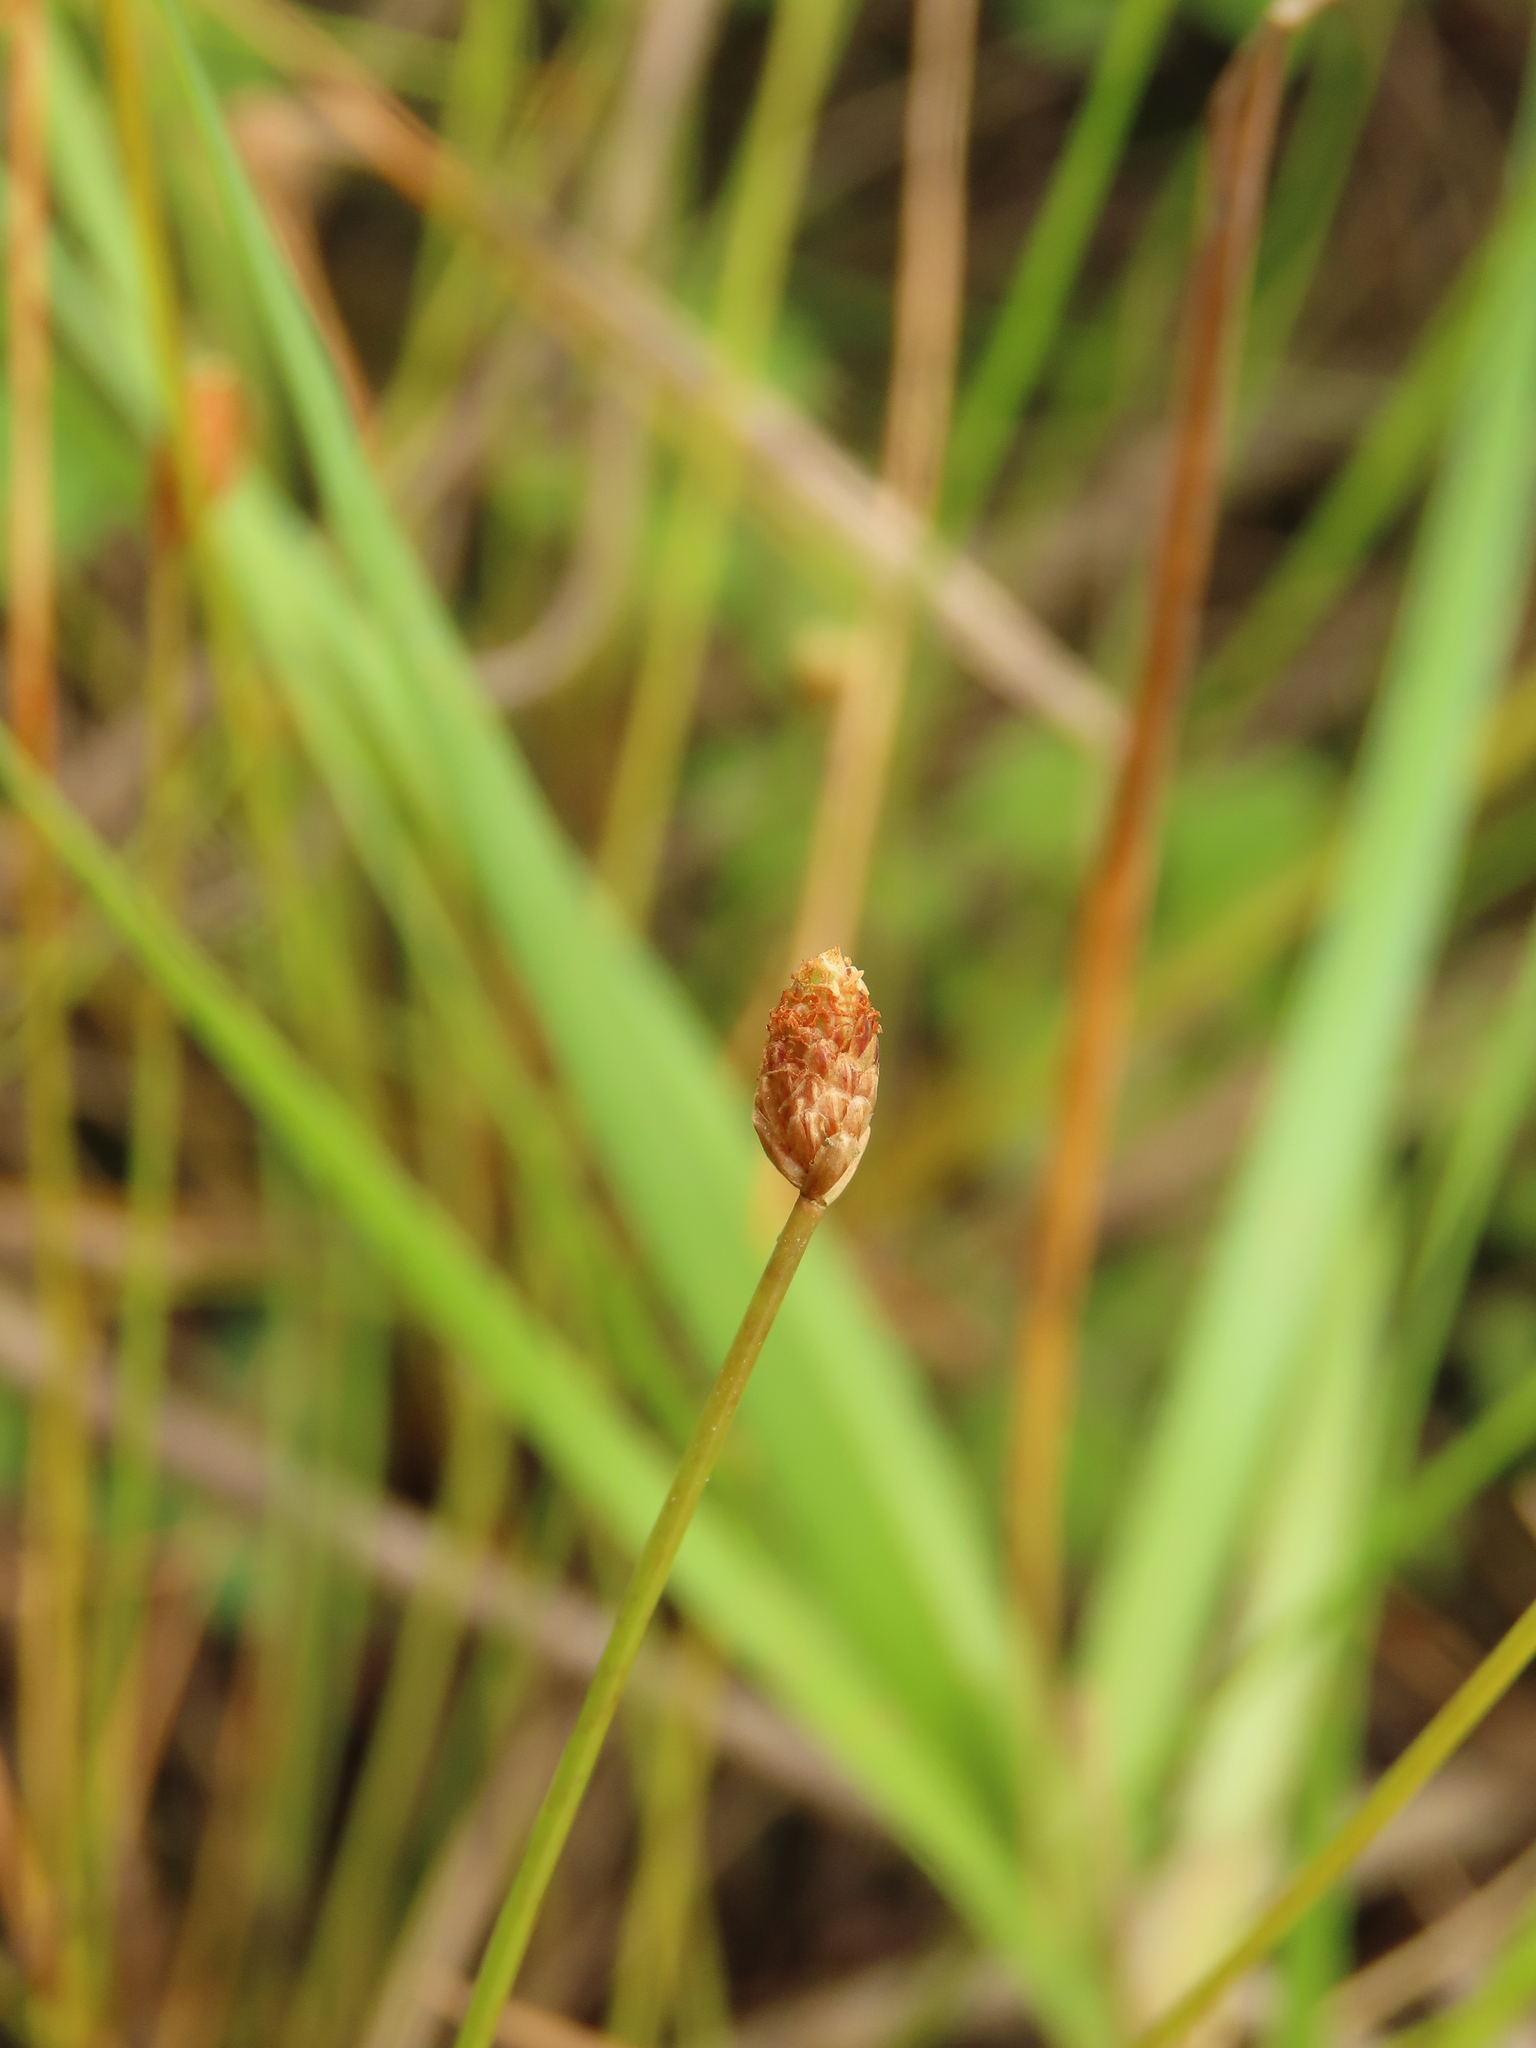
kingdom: Plantae
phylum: Tracheophyta
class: Liliopsida
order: Poales
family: Cyperaceae
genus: Eleocharis
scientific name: Eleocharis geniculata
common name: Canada spikesedge
